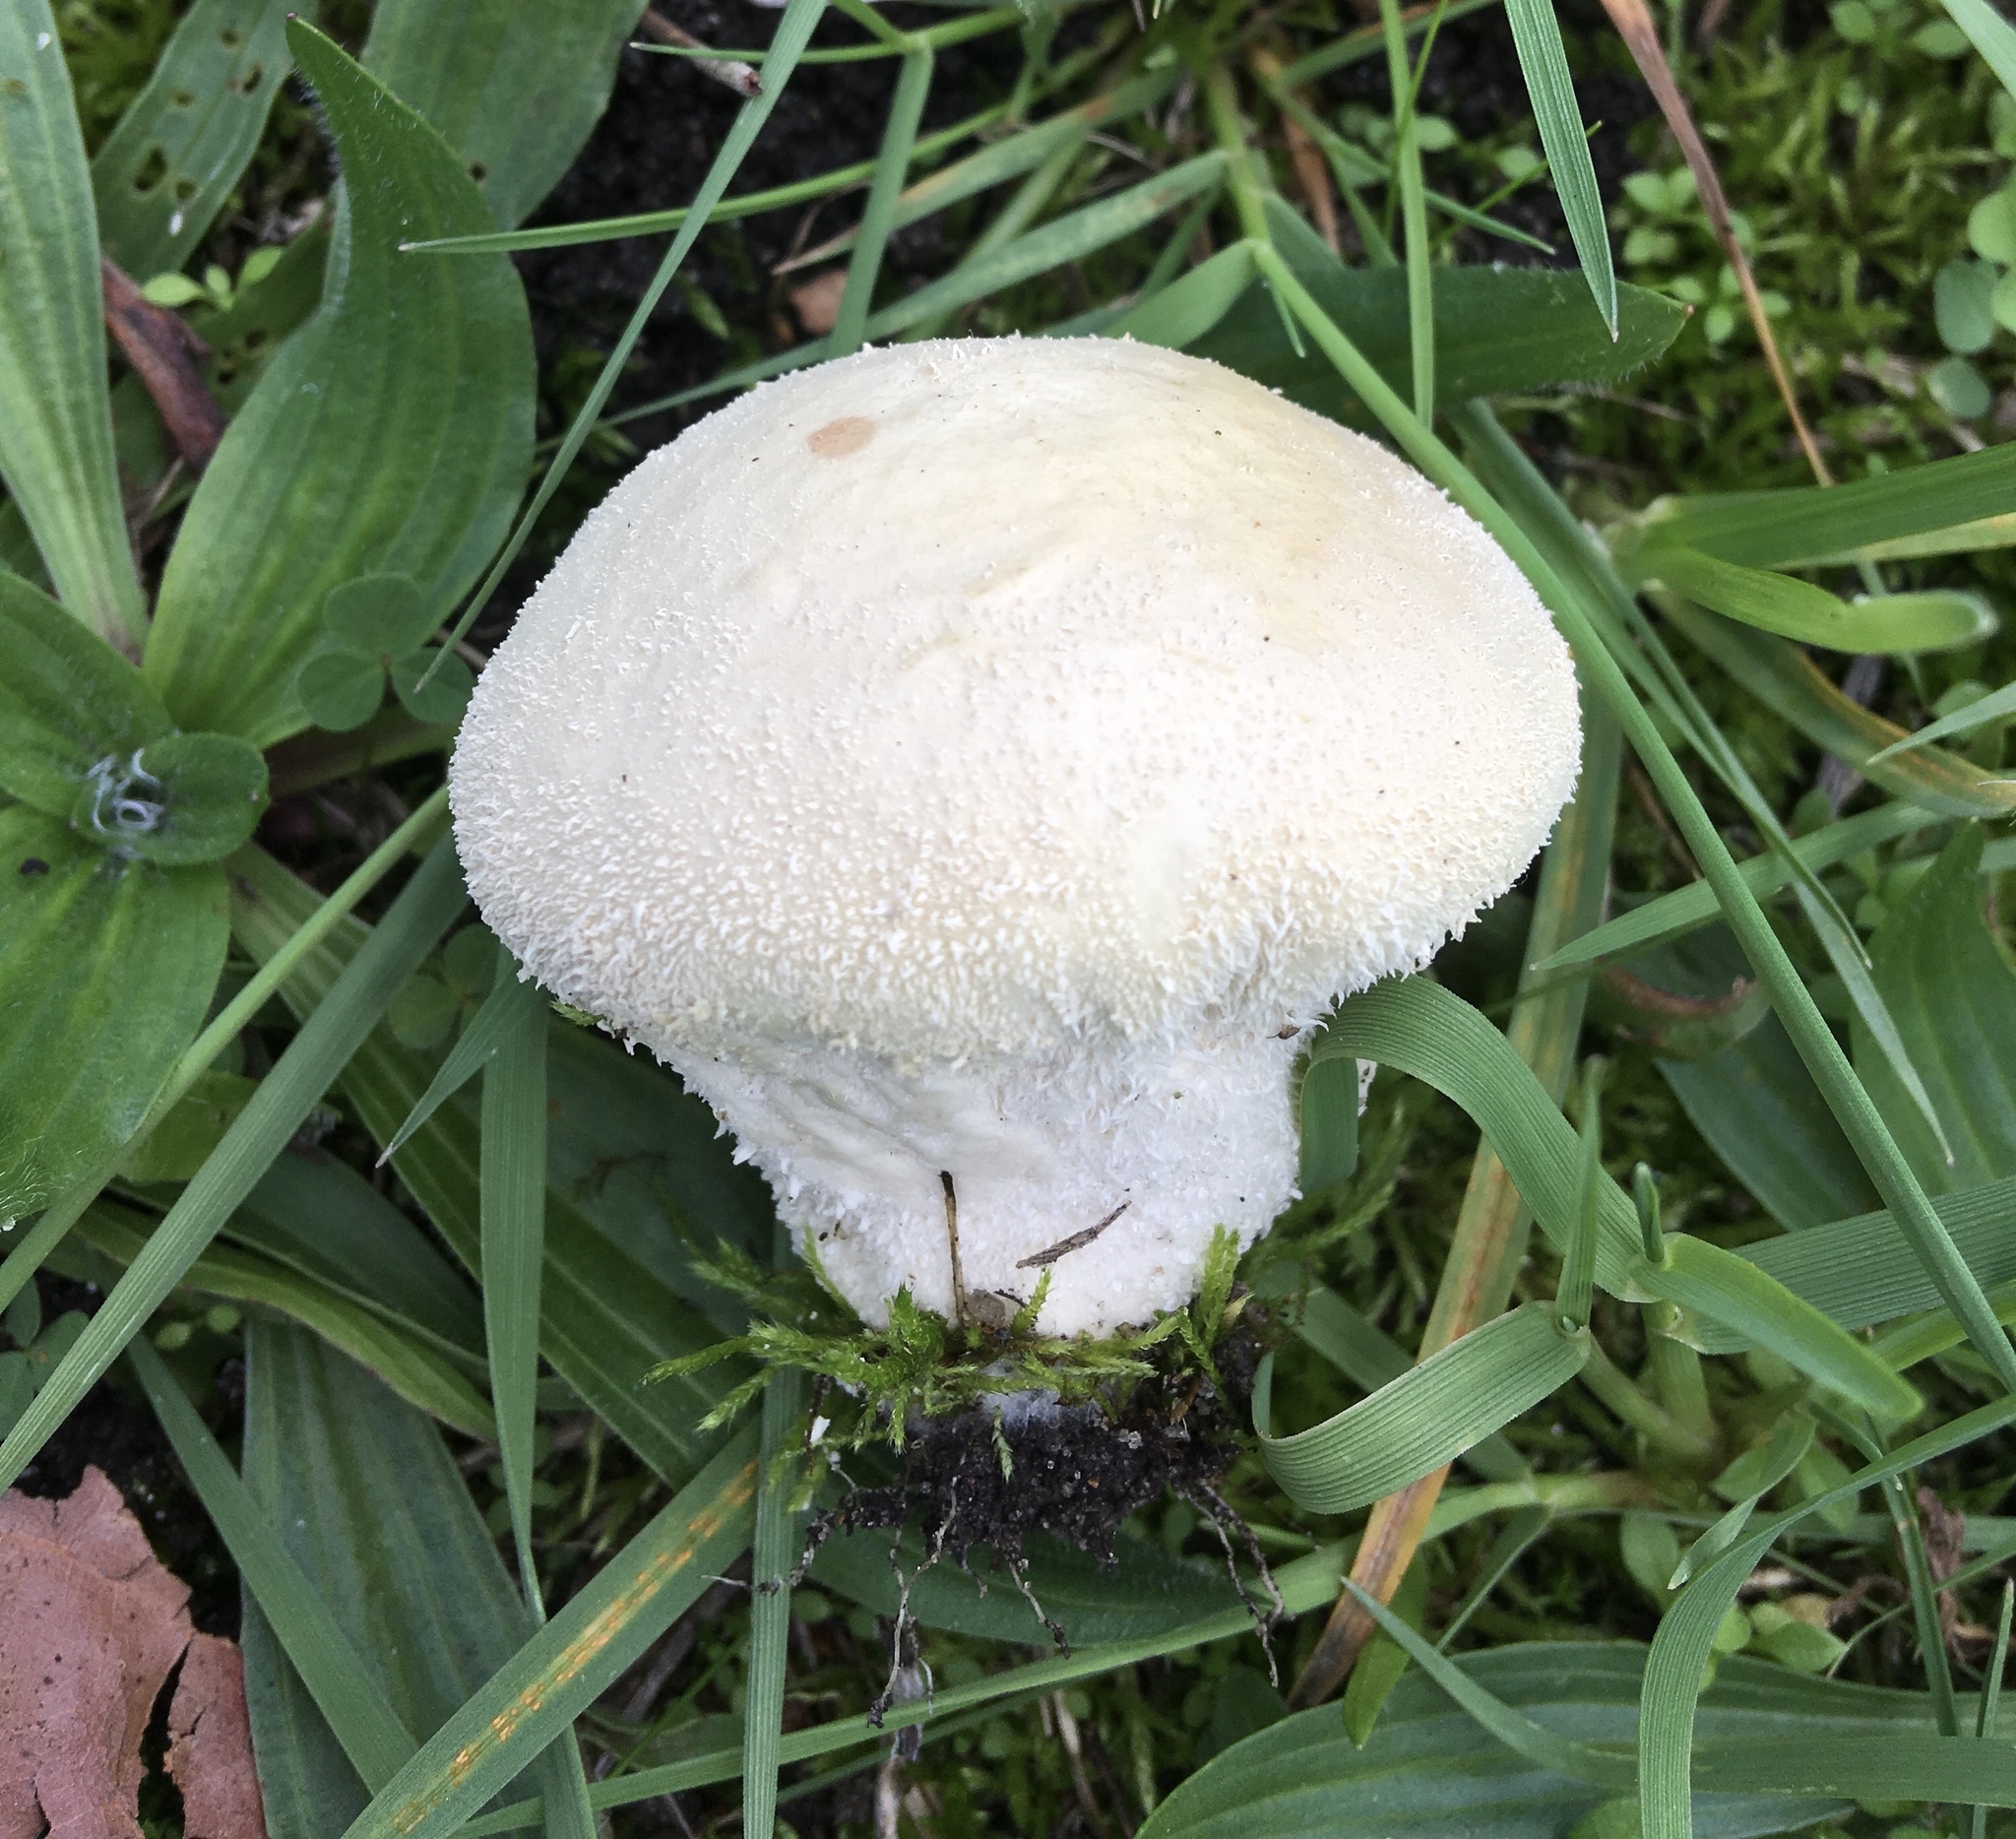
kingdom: Fungi
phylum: Basidiomycota
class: Agaricomycetes
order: Agaricales
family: Lycoperdaceae
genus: Lycoperdon
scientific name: Lycoperdon pratense
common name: Meadow puffball
